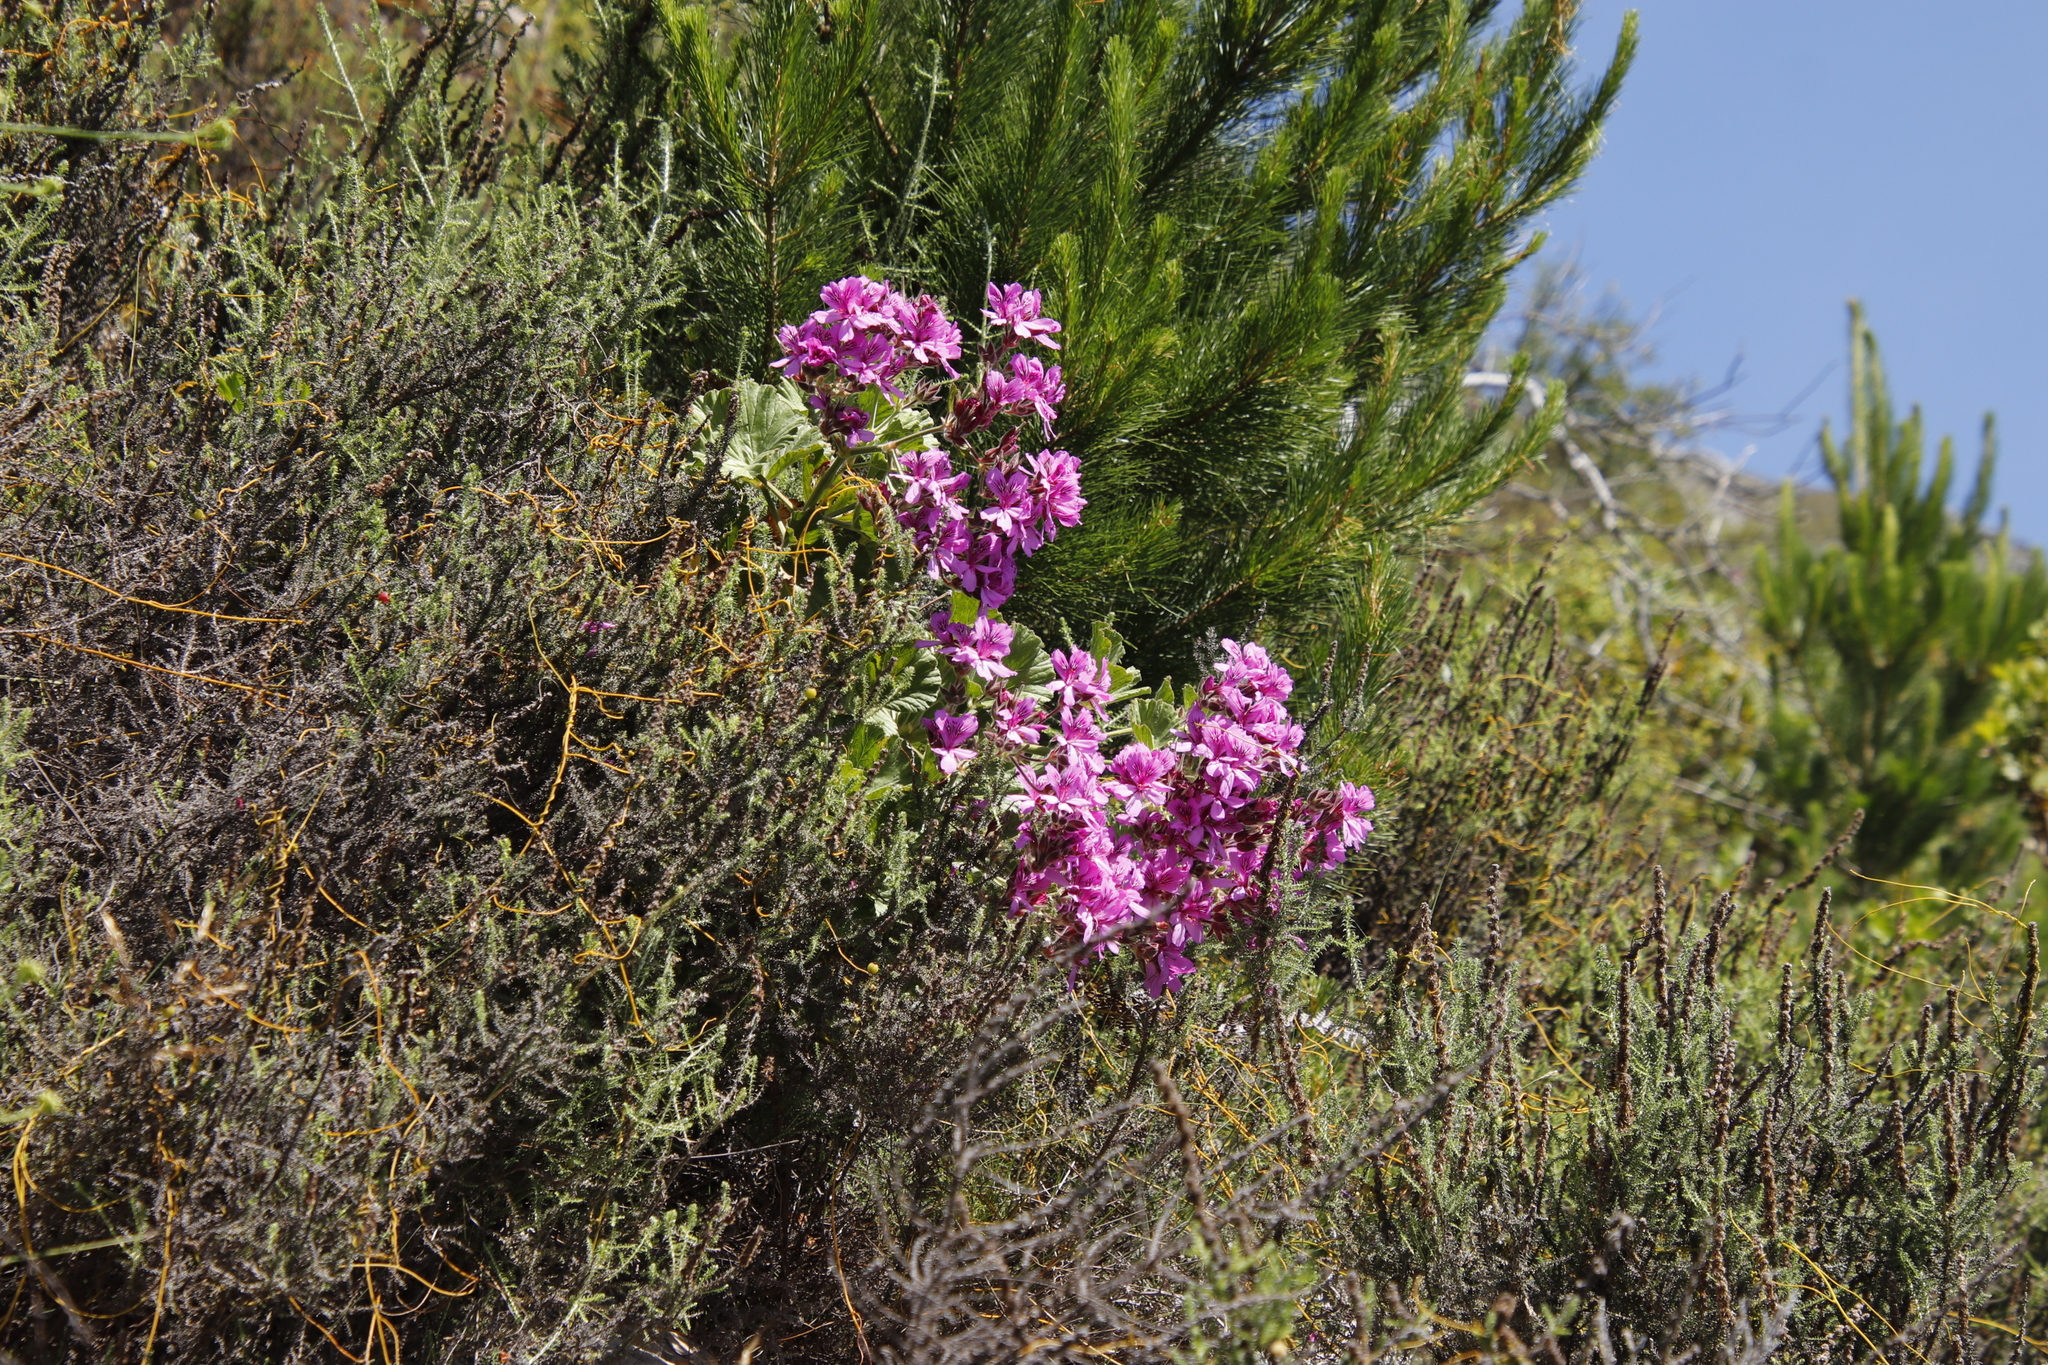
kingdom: Plantae
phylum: Tracheophyta
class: Magnoliopsida
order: Geraniales
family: Geraniaceae
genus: Pelargonium
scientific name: Pelargonium cucullatum
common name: Tree pelargonium
